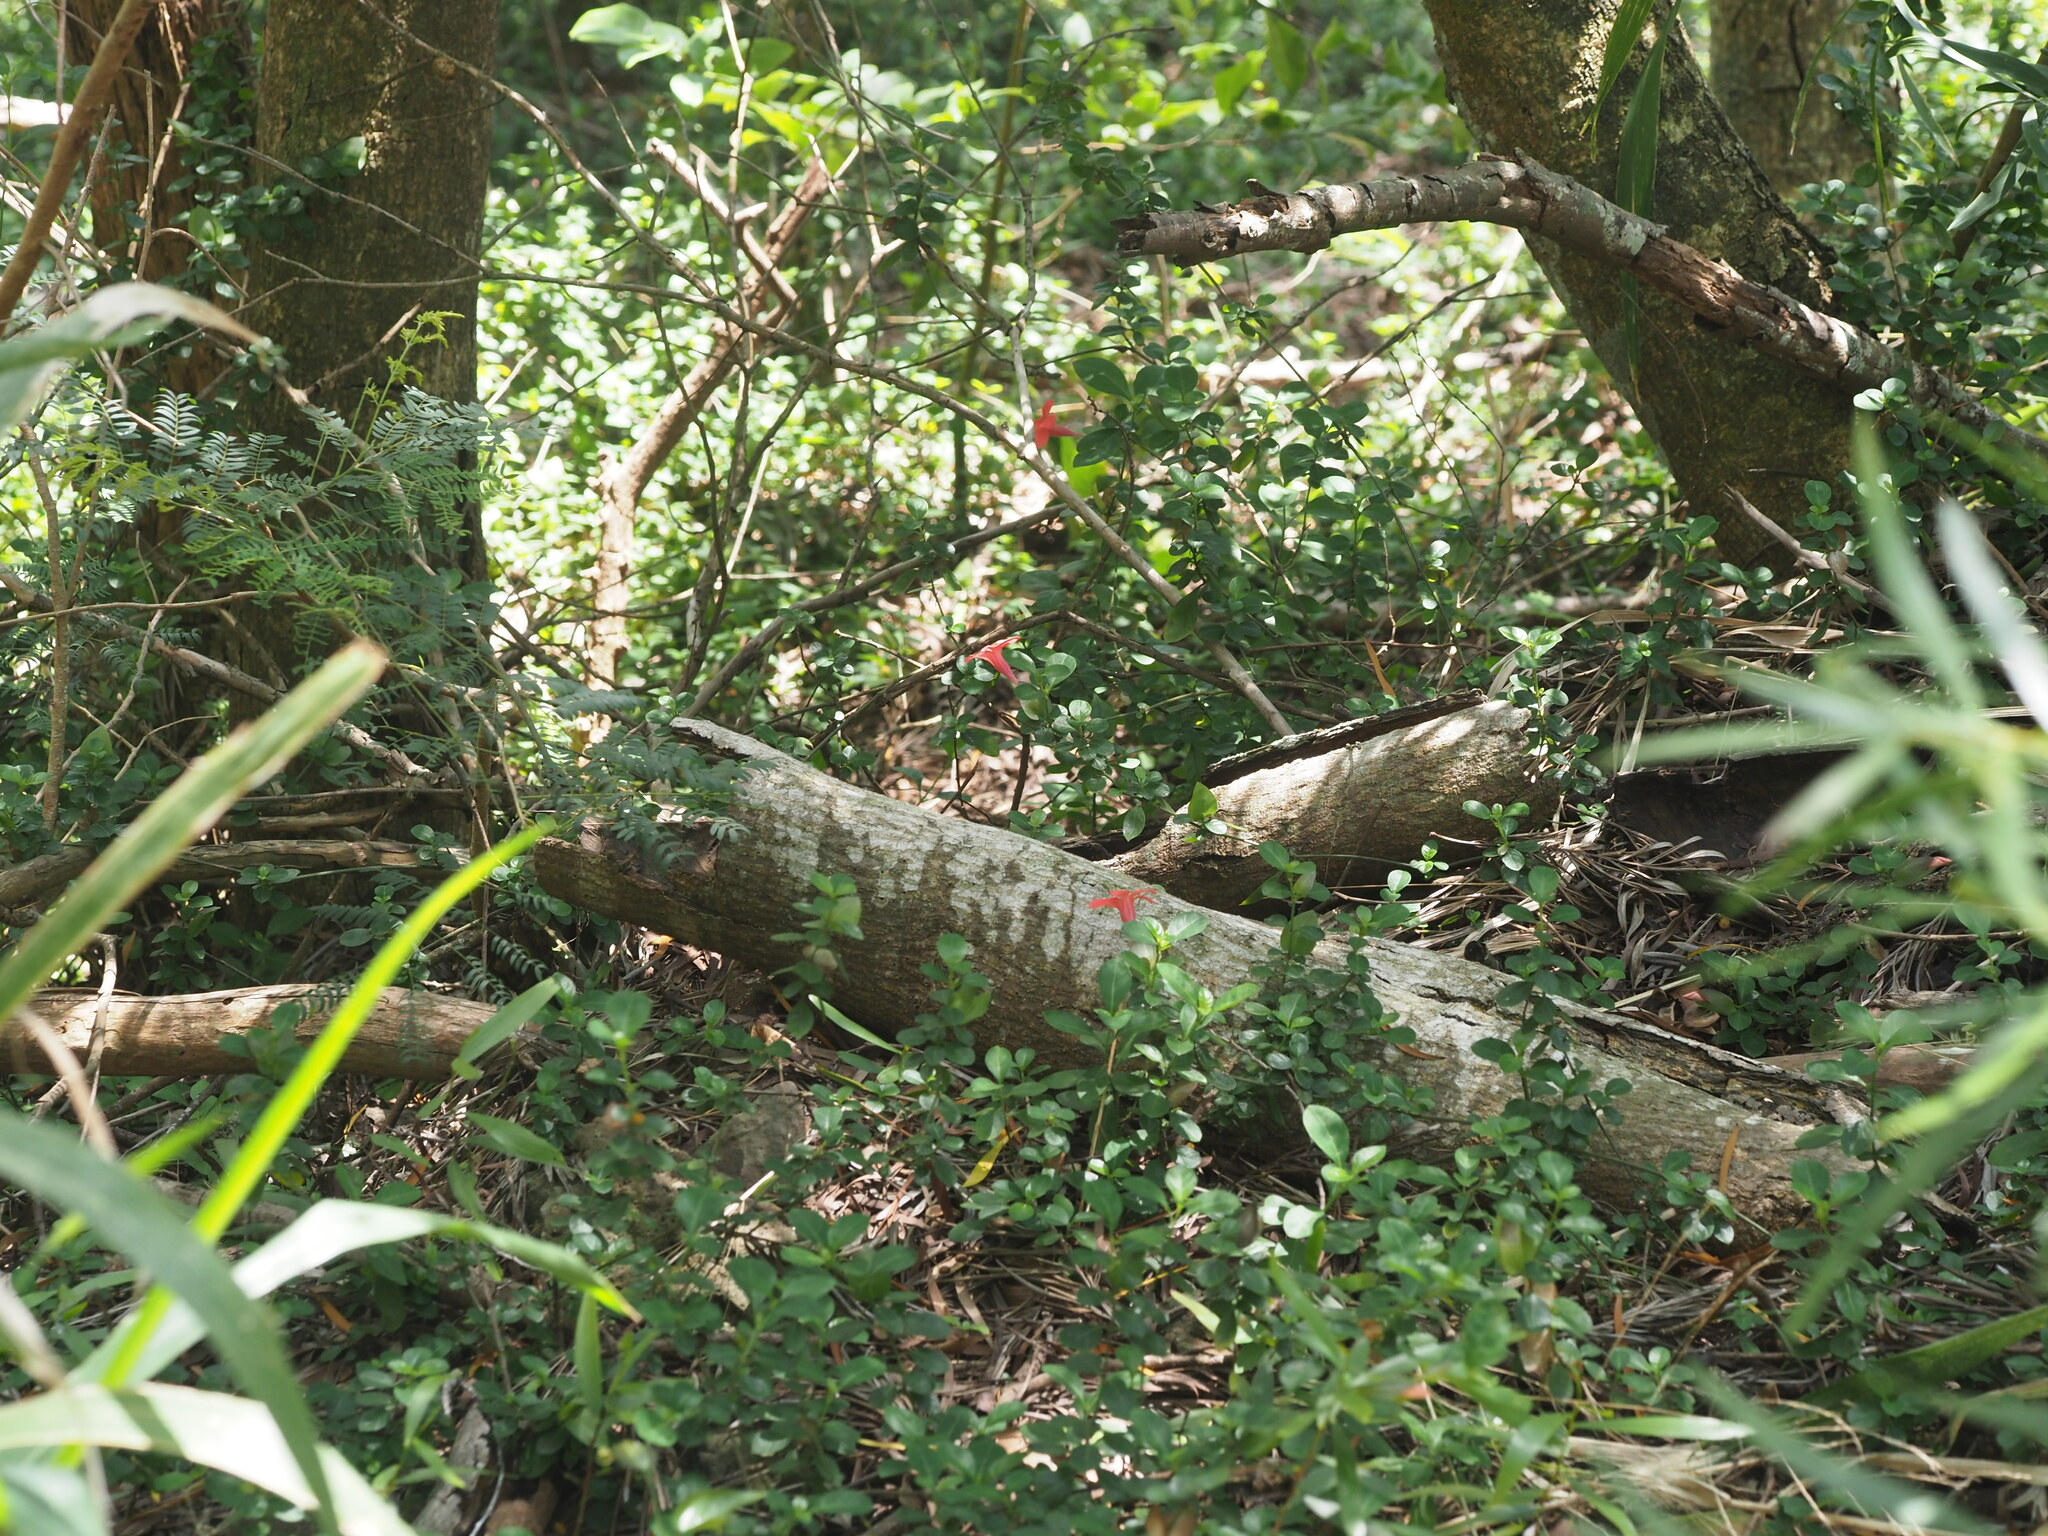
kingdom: Plantae
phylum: Tracheophyta
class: Magnoliopsida
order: Lamiales
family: Acanthaceae
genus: Barleria
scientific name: Barleria repens
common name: Pink-ruellia
